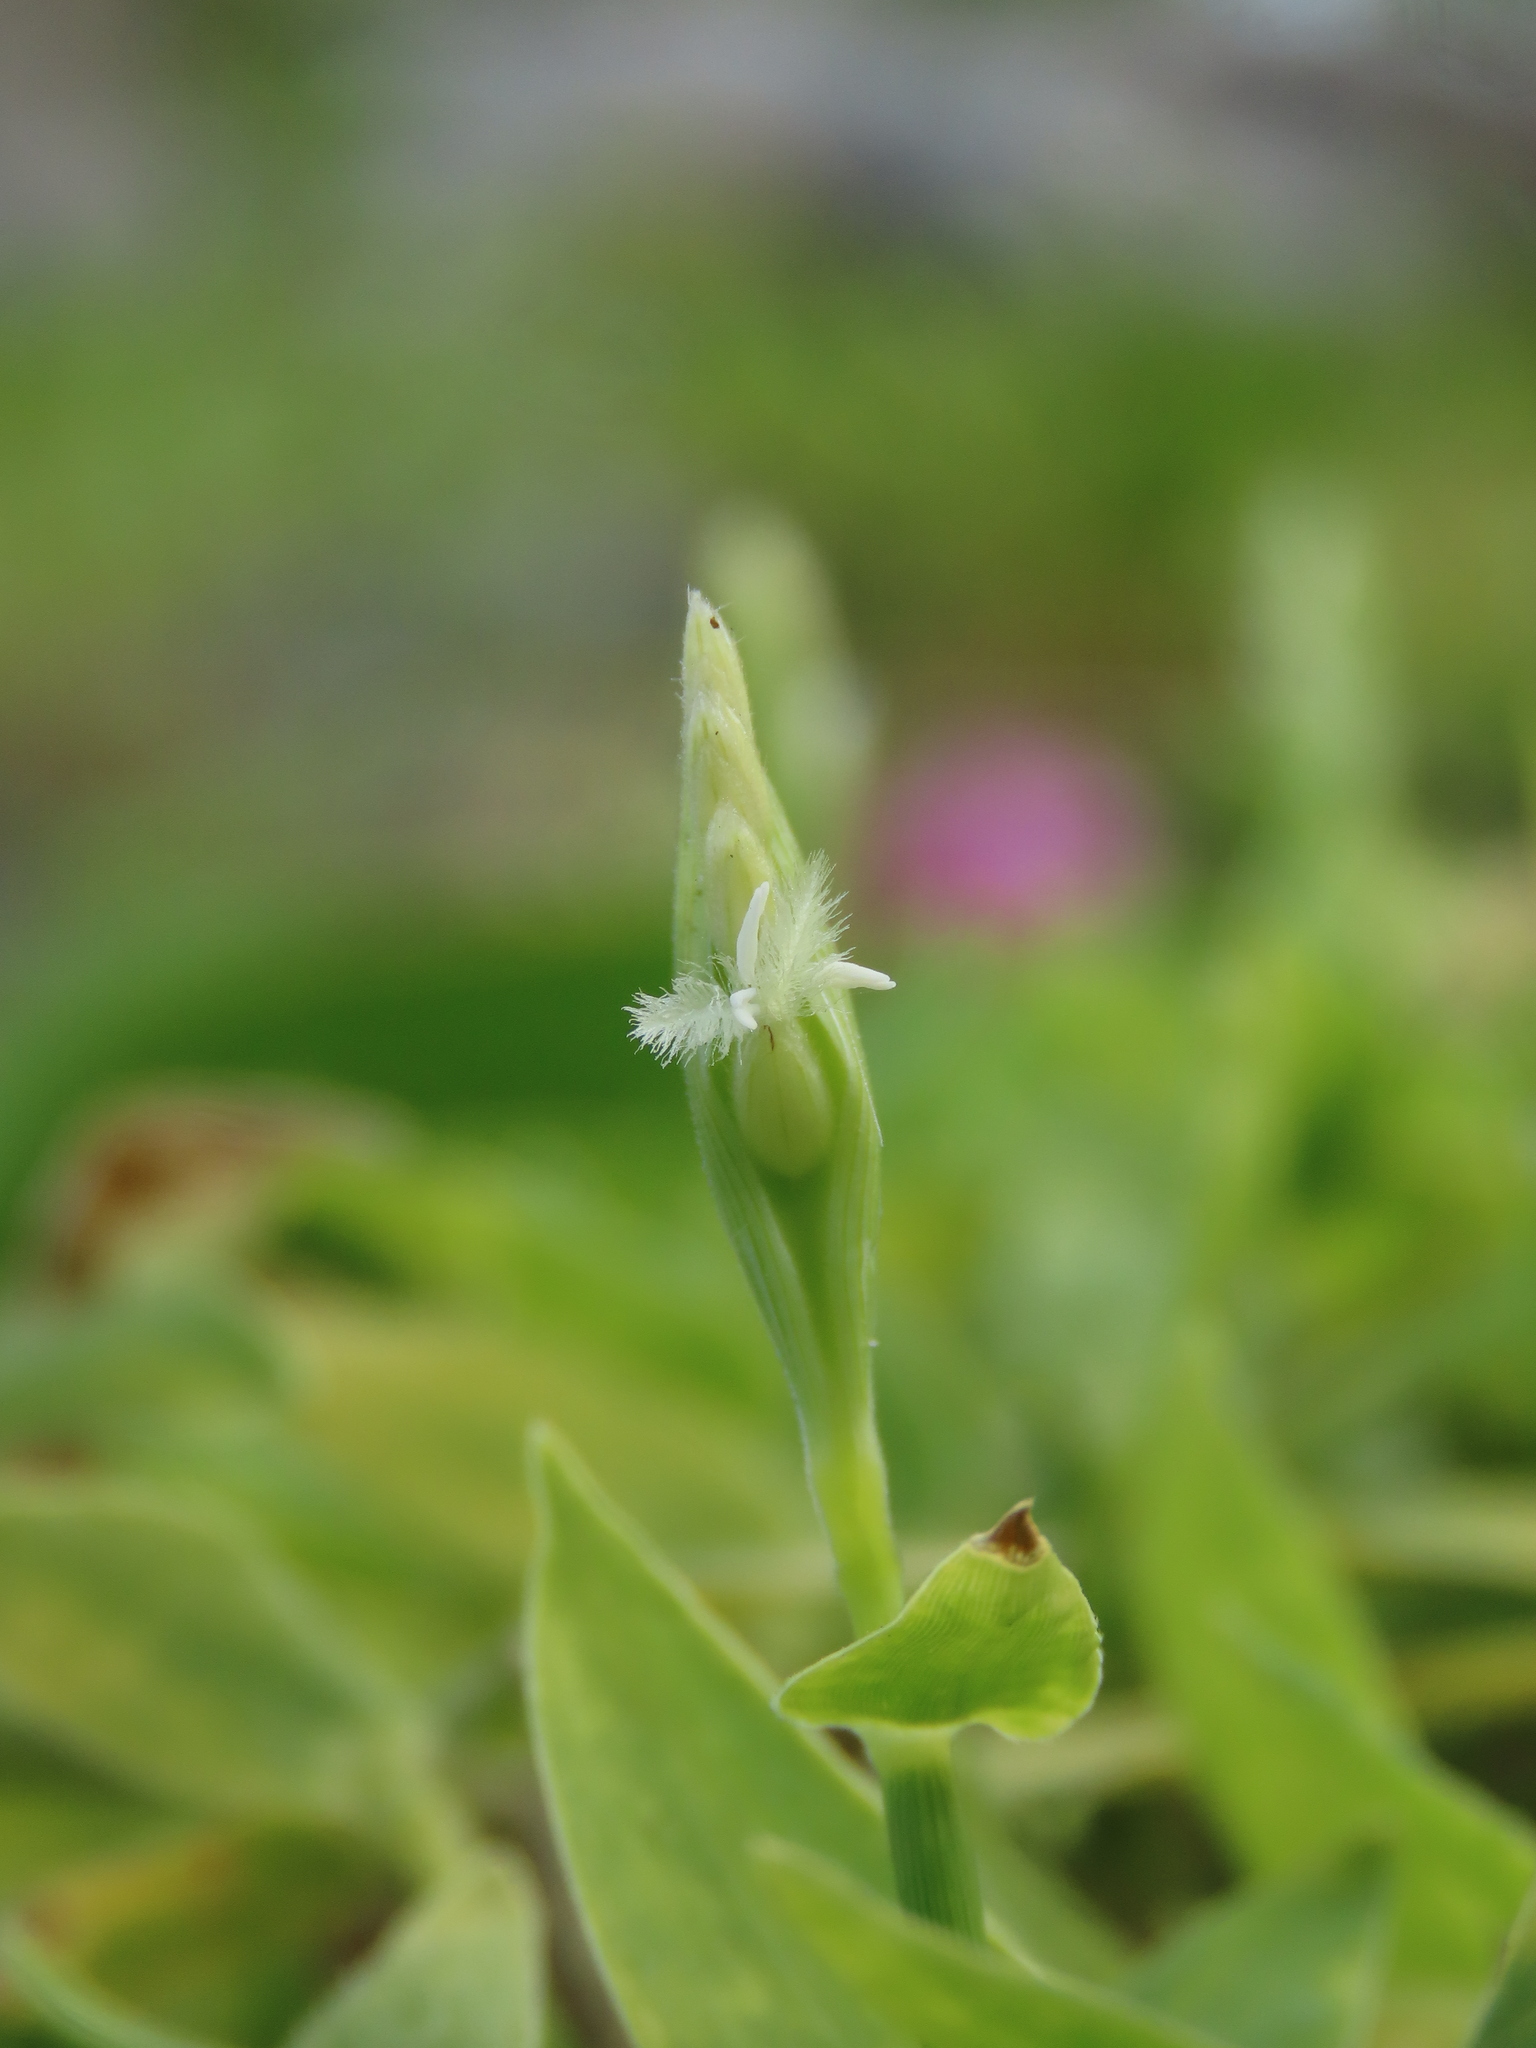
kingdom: Plantae
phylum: Tracheophyta
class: Liliopsida
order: Poales
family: Poaceae
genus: Thuarea
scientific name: Thuarea involuta
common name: Tropical beach grass
